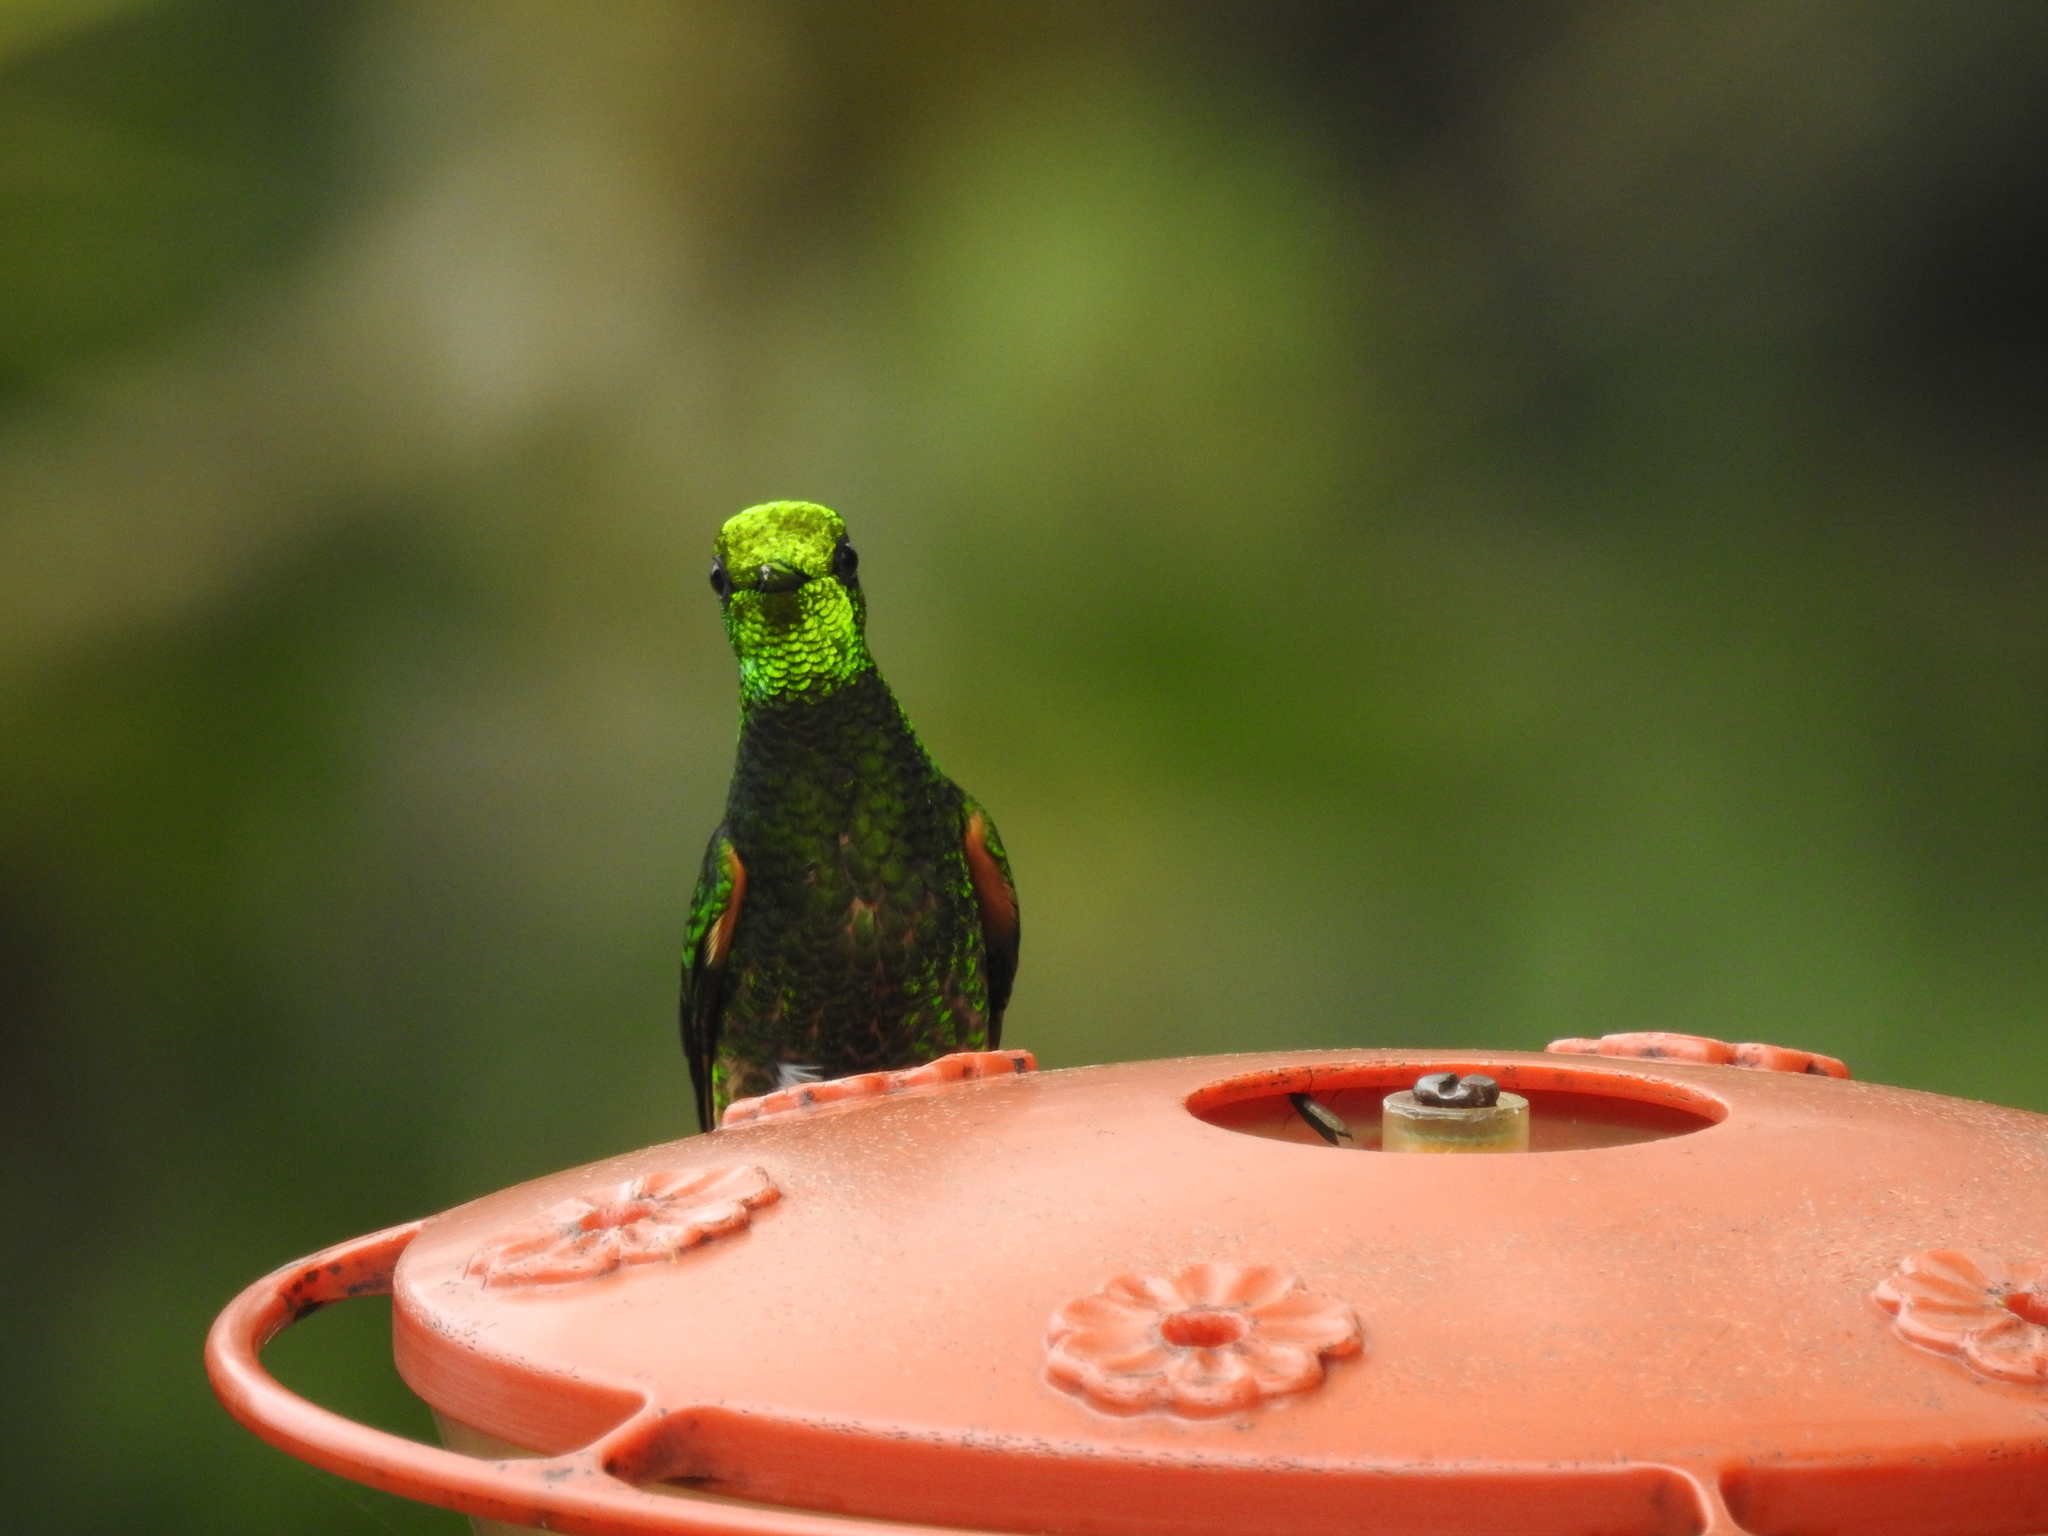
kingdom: Animalia
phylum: Chordata
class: Aves
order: Apodiformes
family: Trochilidae
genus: Boissonneaua
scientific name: Boissonneaua flavescens
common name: Buff-tailed coronet
